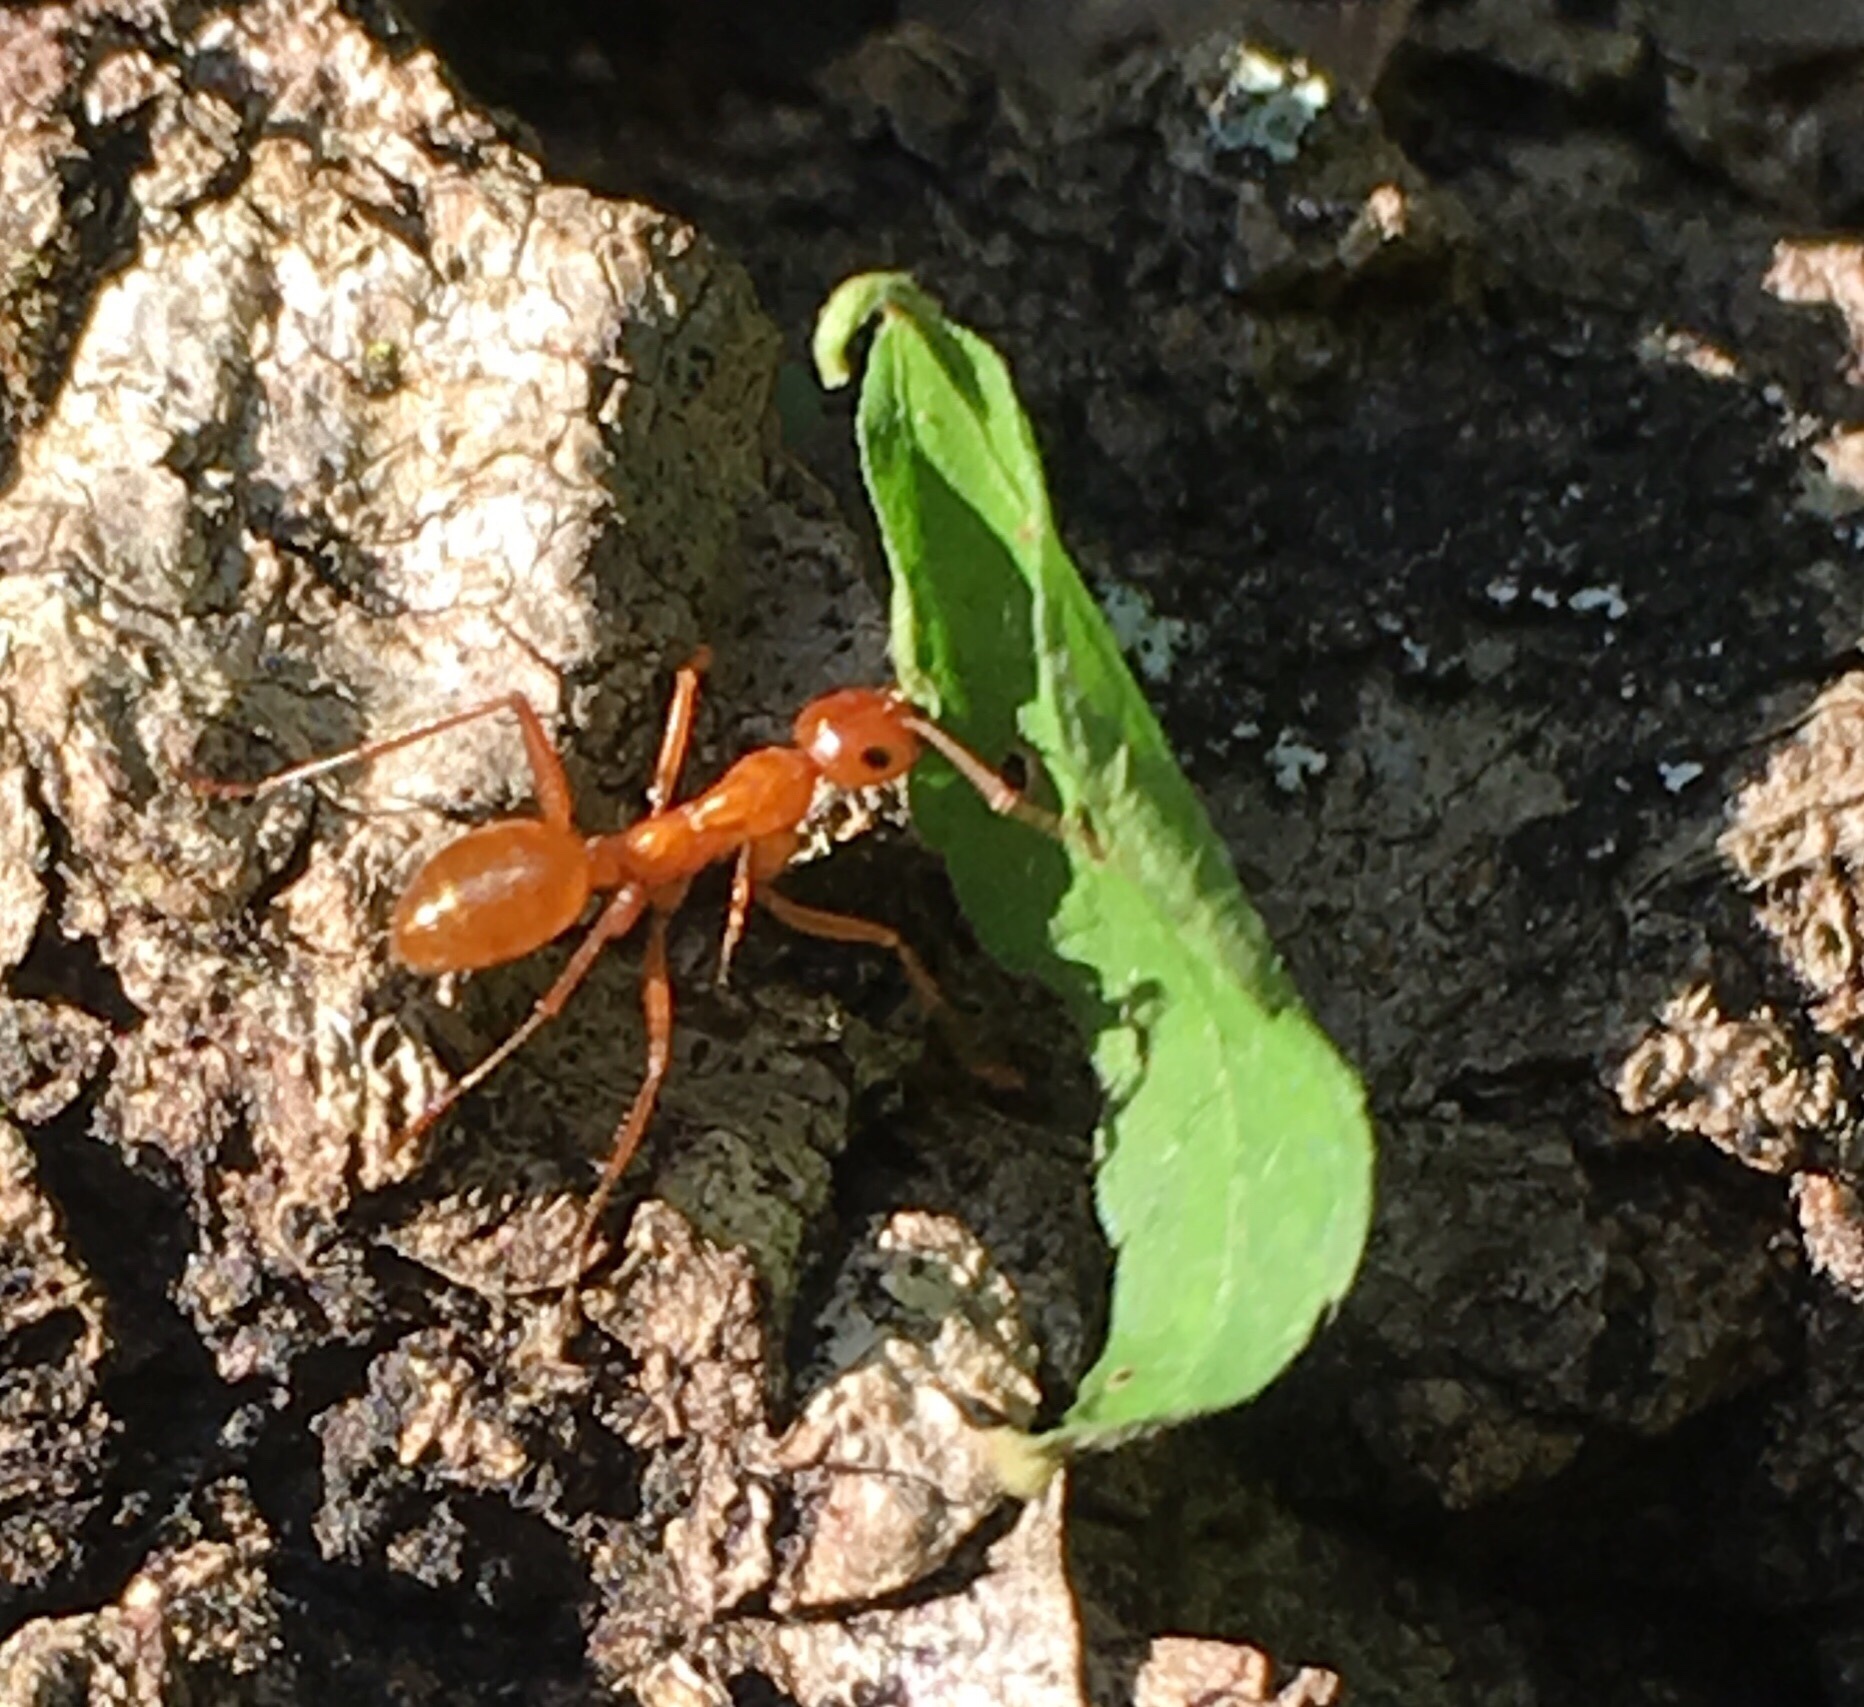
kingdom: Animalia
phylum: Arthropoda
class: Insecta
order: Hymenoptera
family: Formicidae
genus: Formica
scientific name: Formica biophilica
